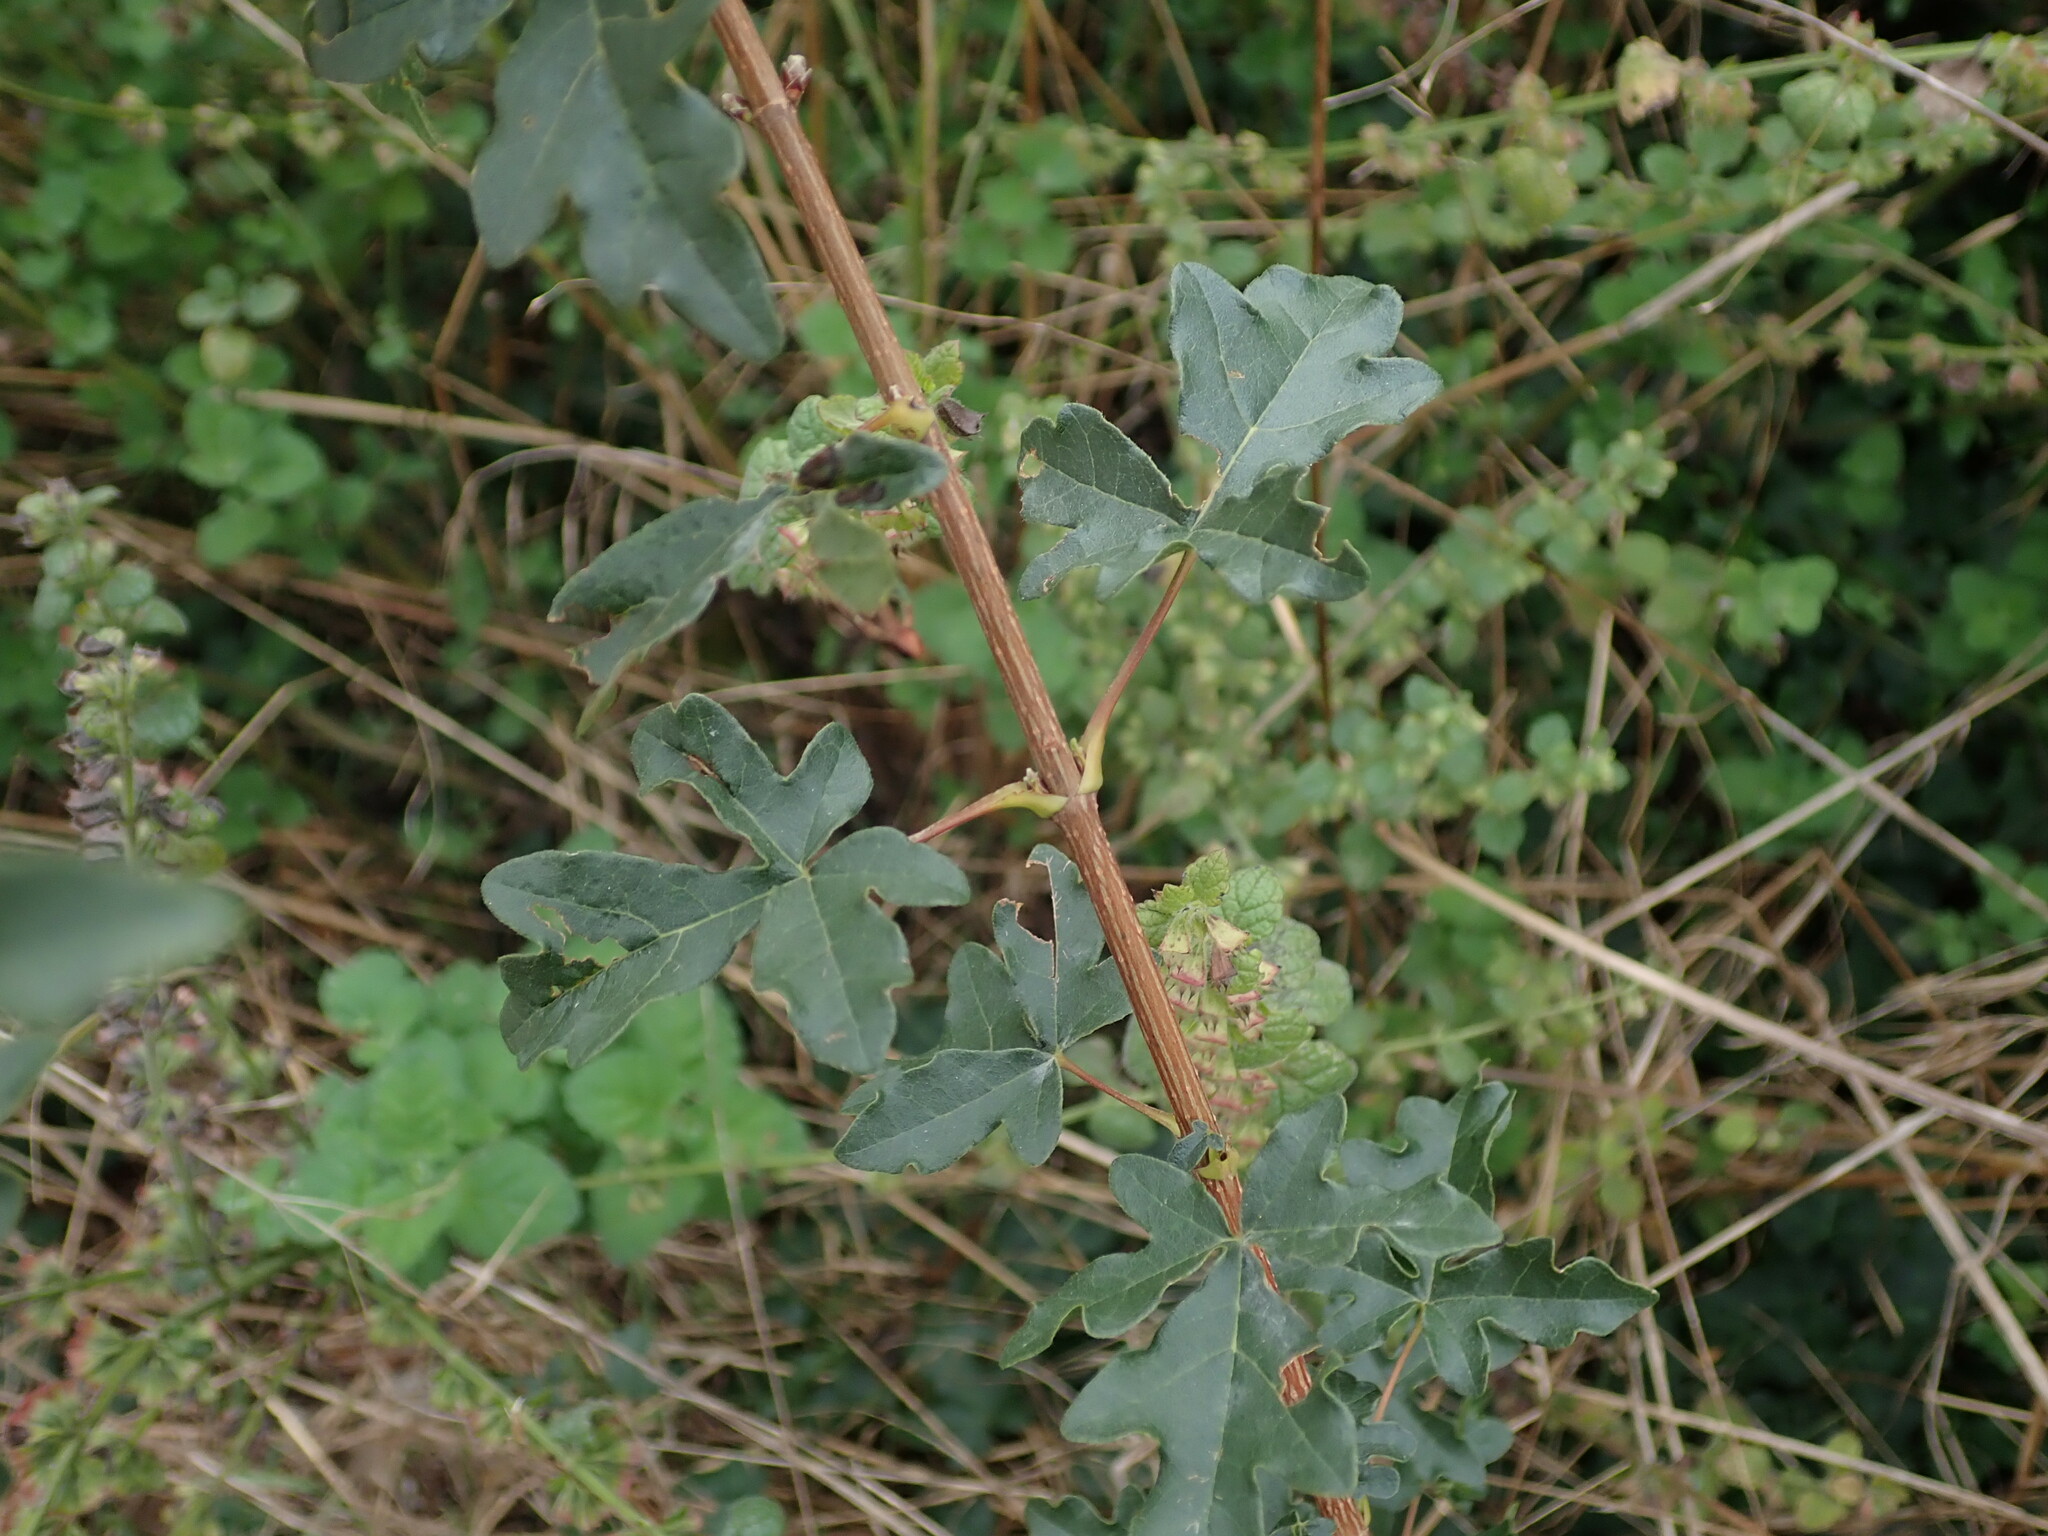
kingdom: Plantae
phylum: Tracheophyta
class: Magnoliopsida
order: Sapindales
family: Sapindaceae
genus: Acer
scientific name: Acer campestre
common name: Field maple
